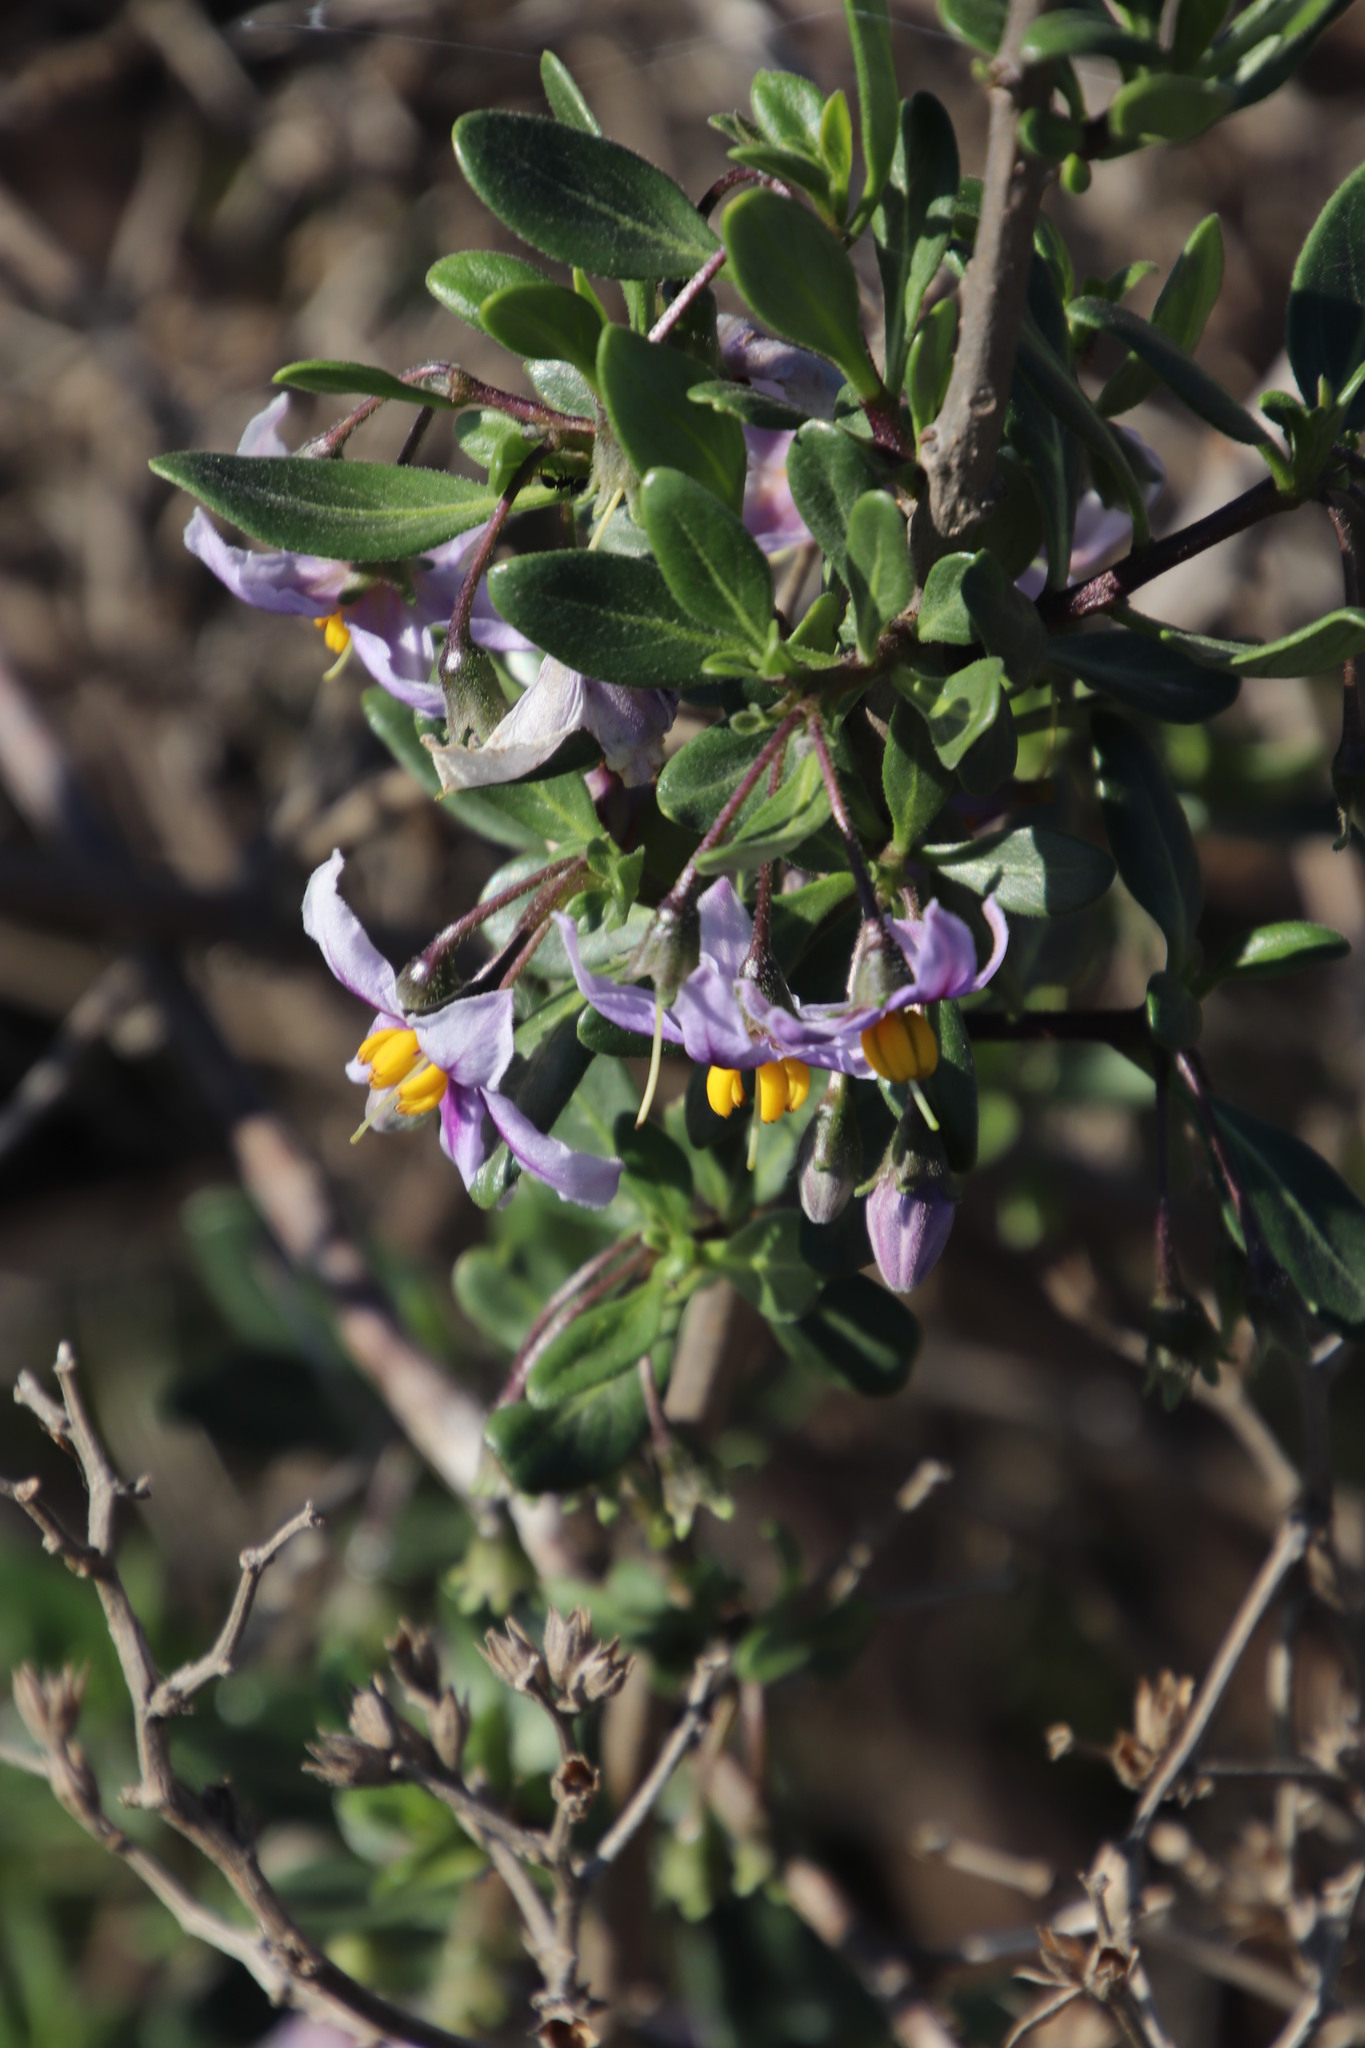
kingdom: Plantae
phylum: Tracheophyta
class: Magnoliopsida
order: Solanales
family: Solanaceae
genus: Solanum
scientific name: Solanum guineense
